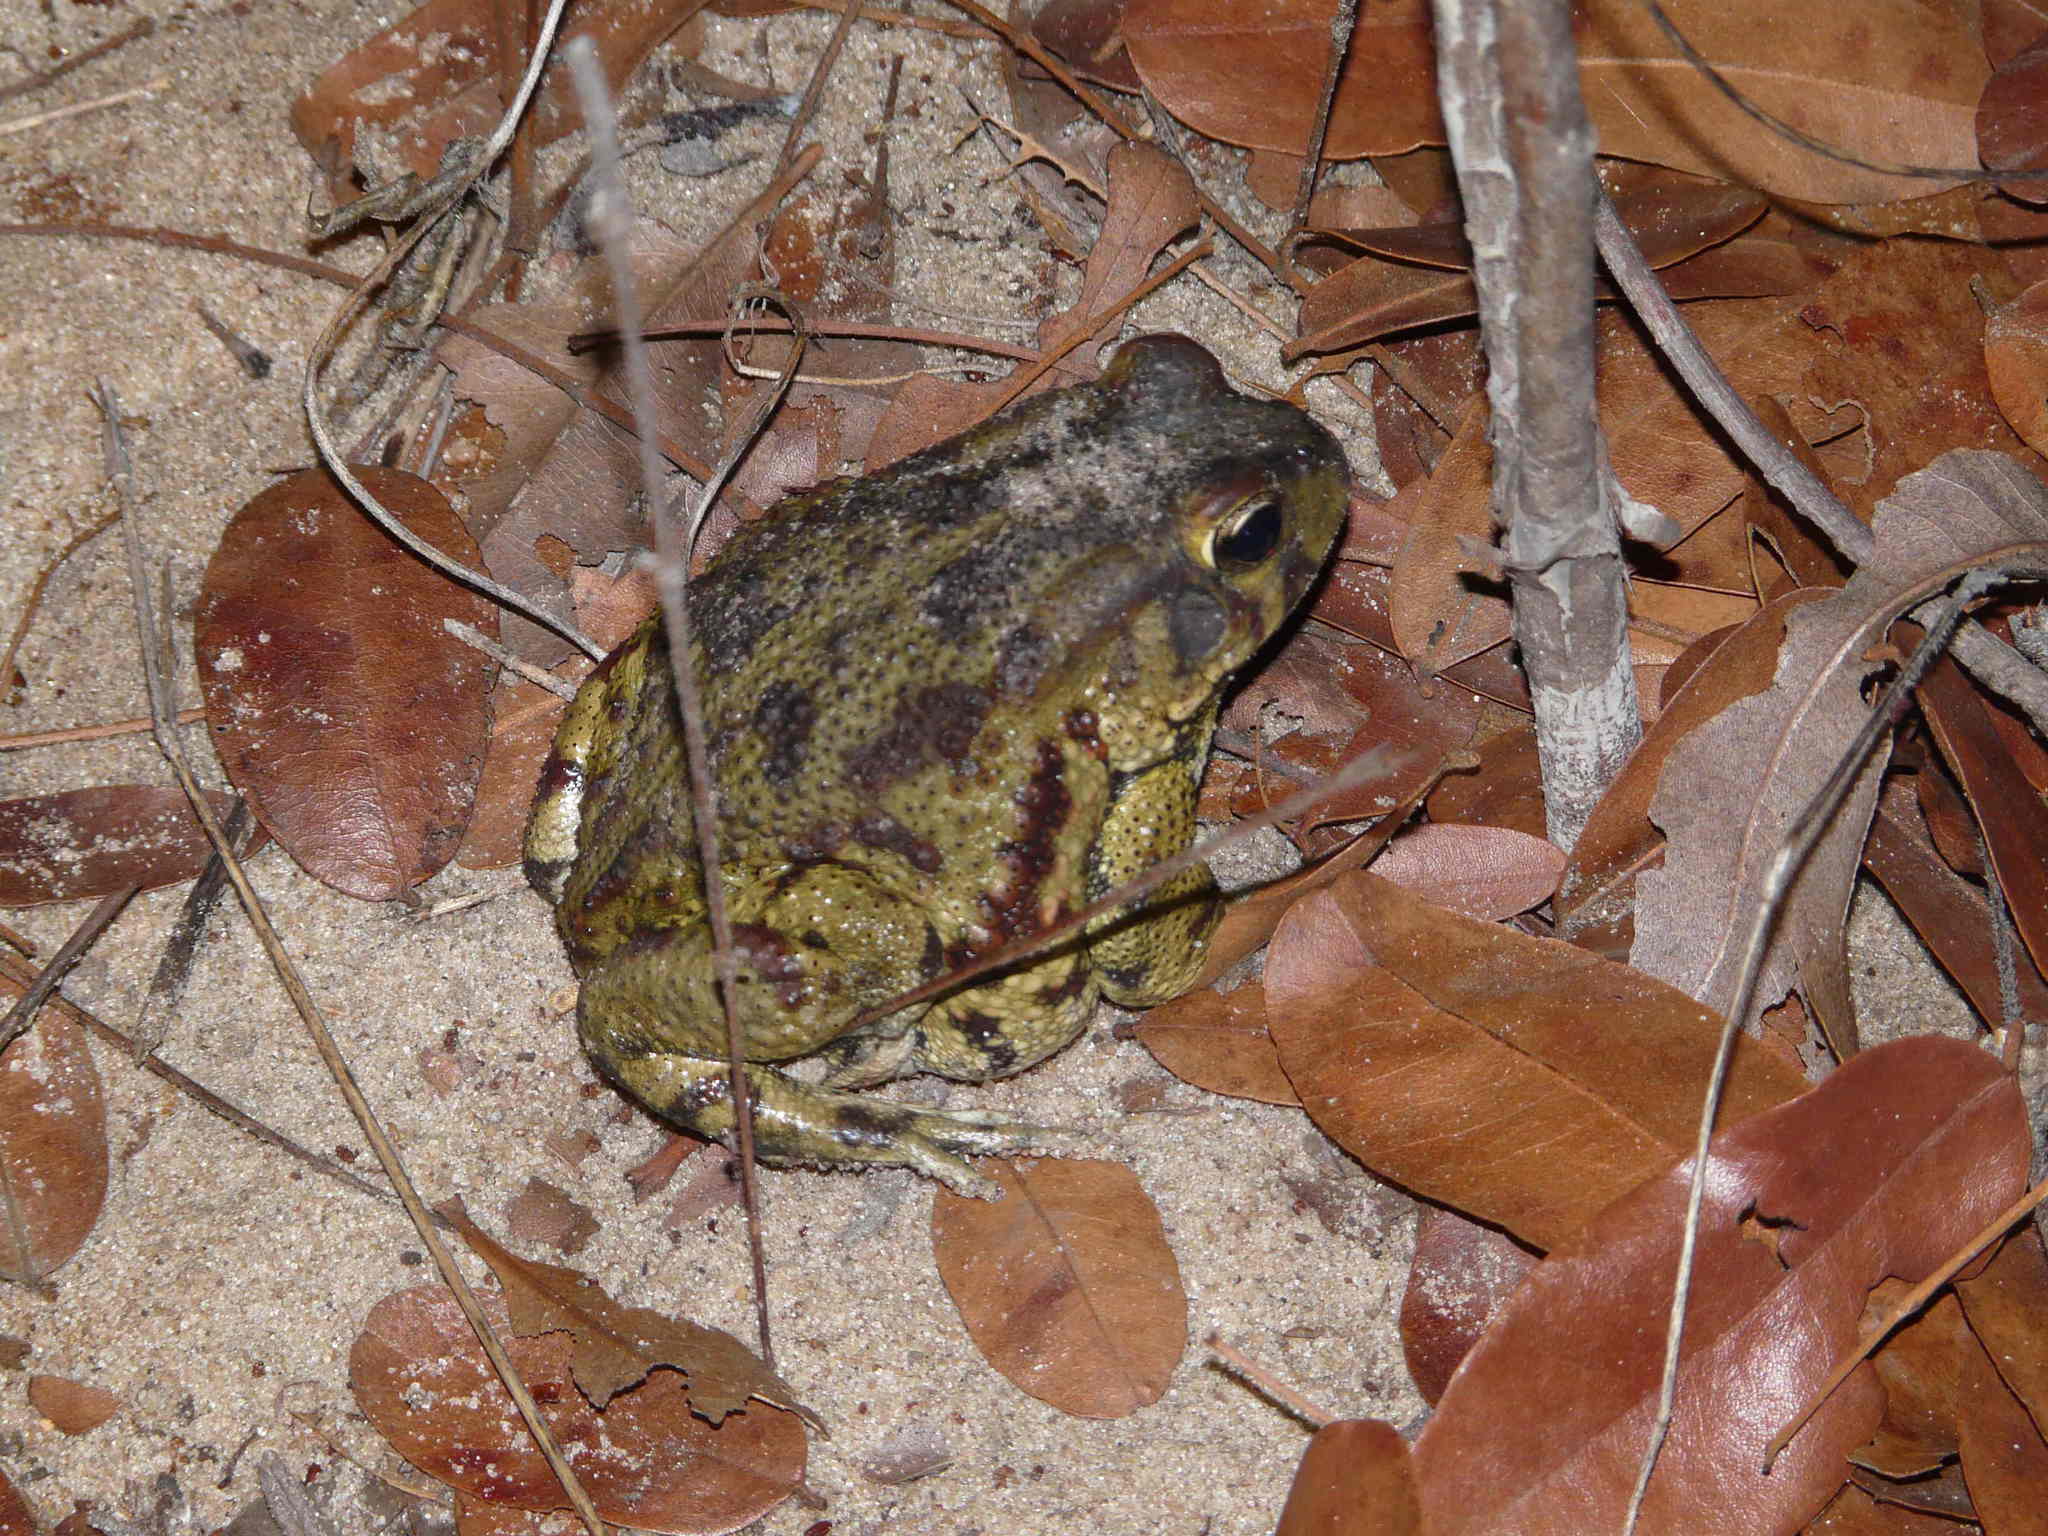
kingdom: Animalia
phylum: Chordata
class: Amphibia
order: Anura
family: Bufonidae
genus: Sclerophrys
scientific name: Sclerophrys garmani
